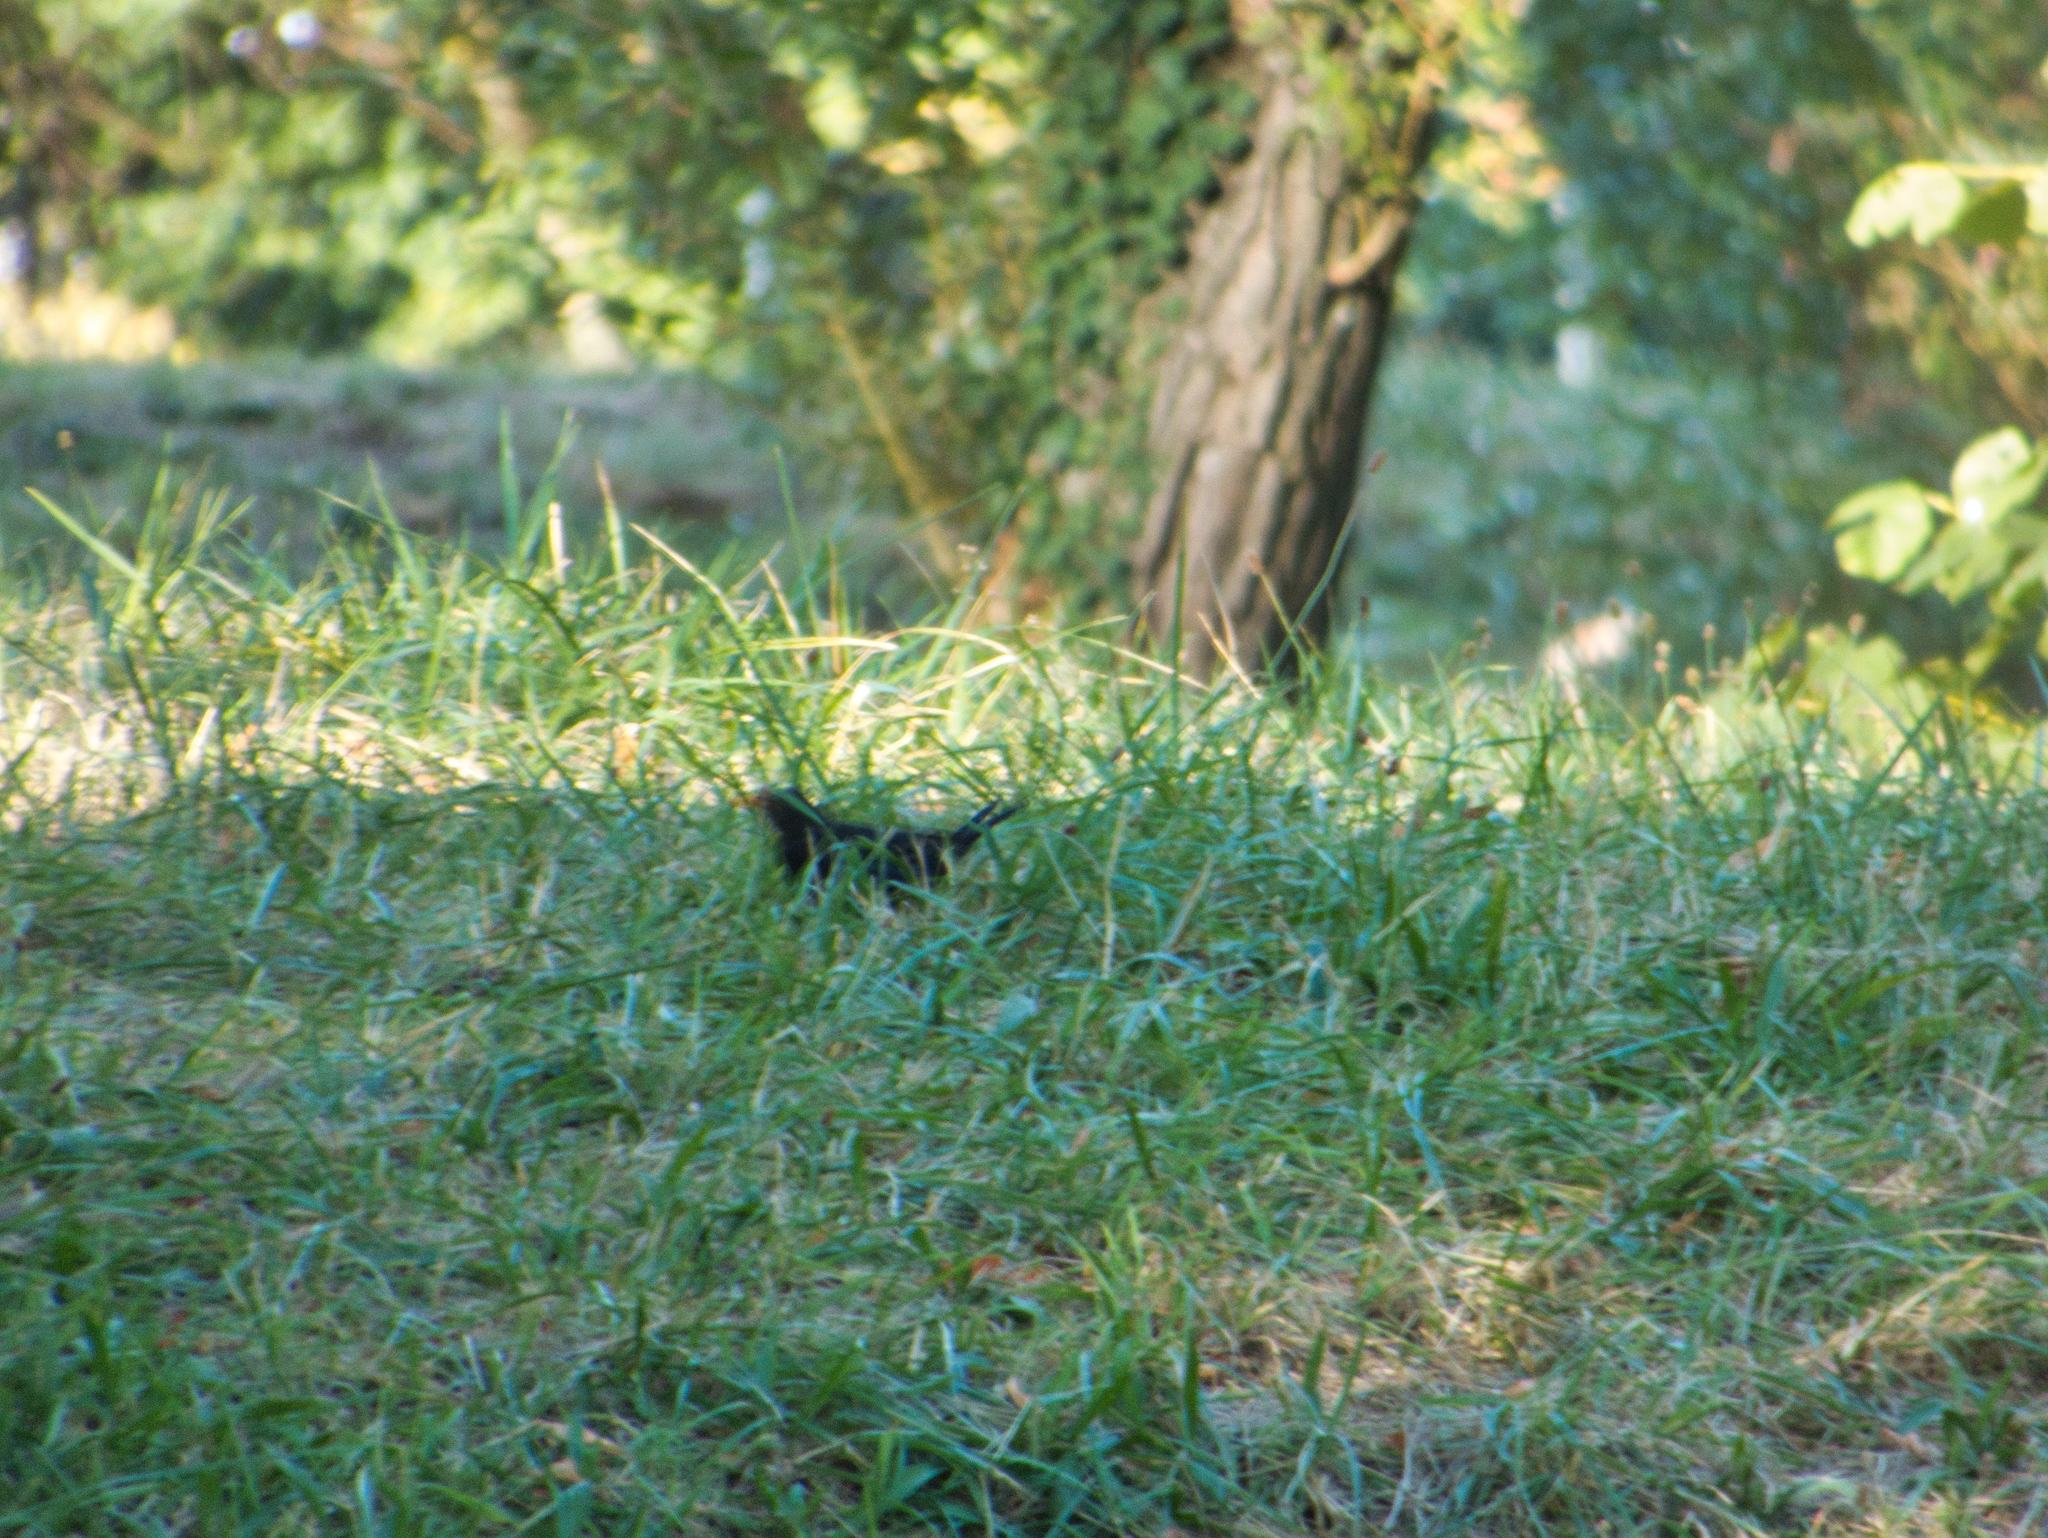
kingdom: Animalia
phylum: Chordata
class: Aves
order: Passeriformes
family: Turdidae
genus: Turdus
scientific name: Turdus merula
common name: Common blackbird
